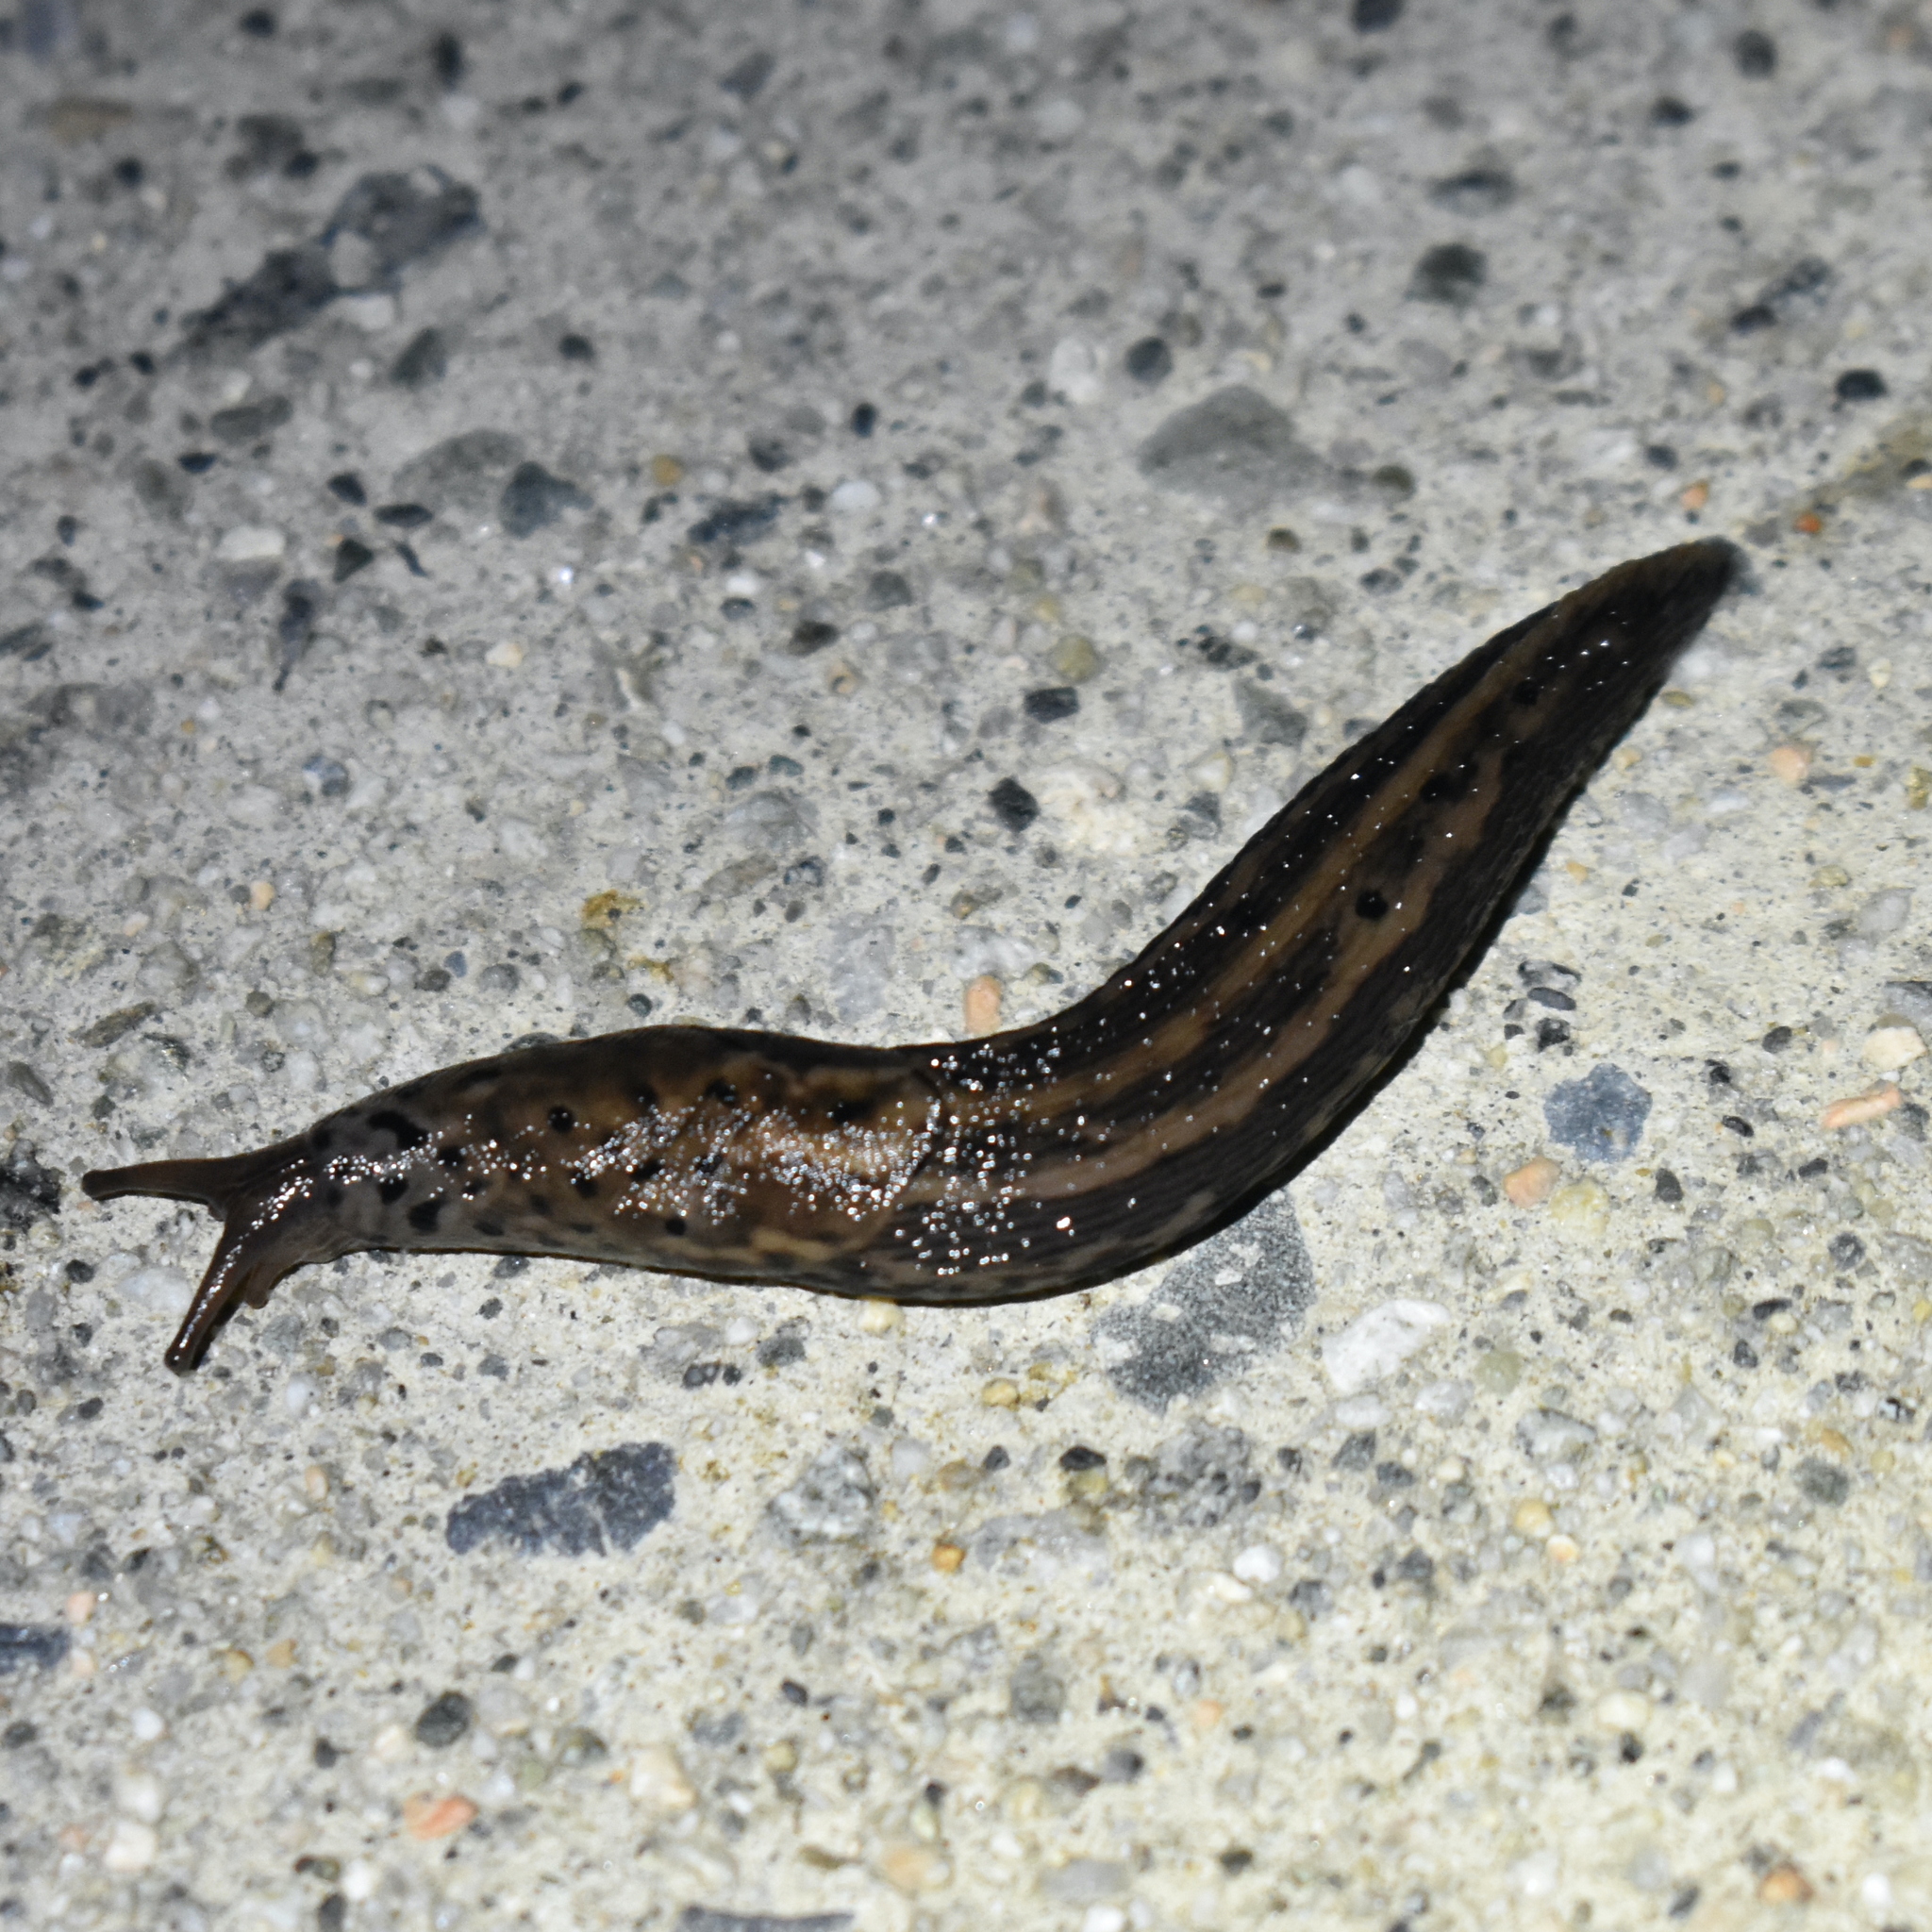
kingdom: Animalia
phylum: Mollusca
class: Gastropoda
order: Stylommatophora
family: Limacidae
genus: Limax
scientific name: Limax maximus
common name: Great grey slug
